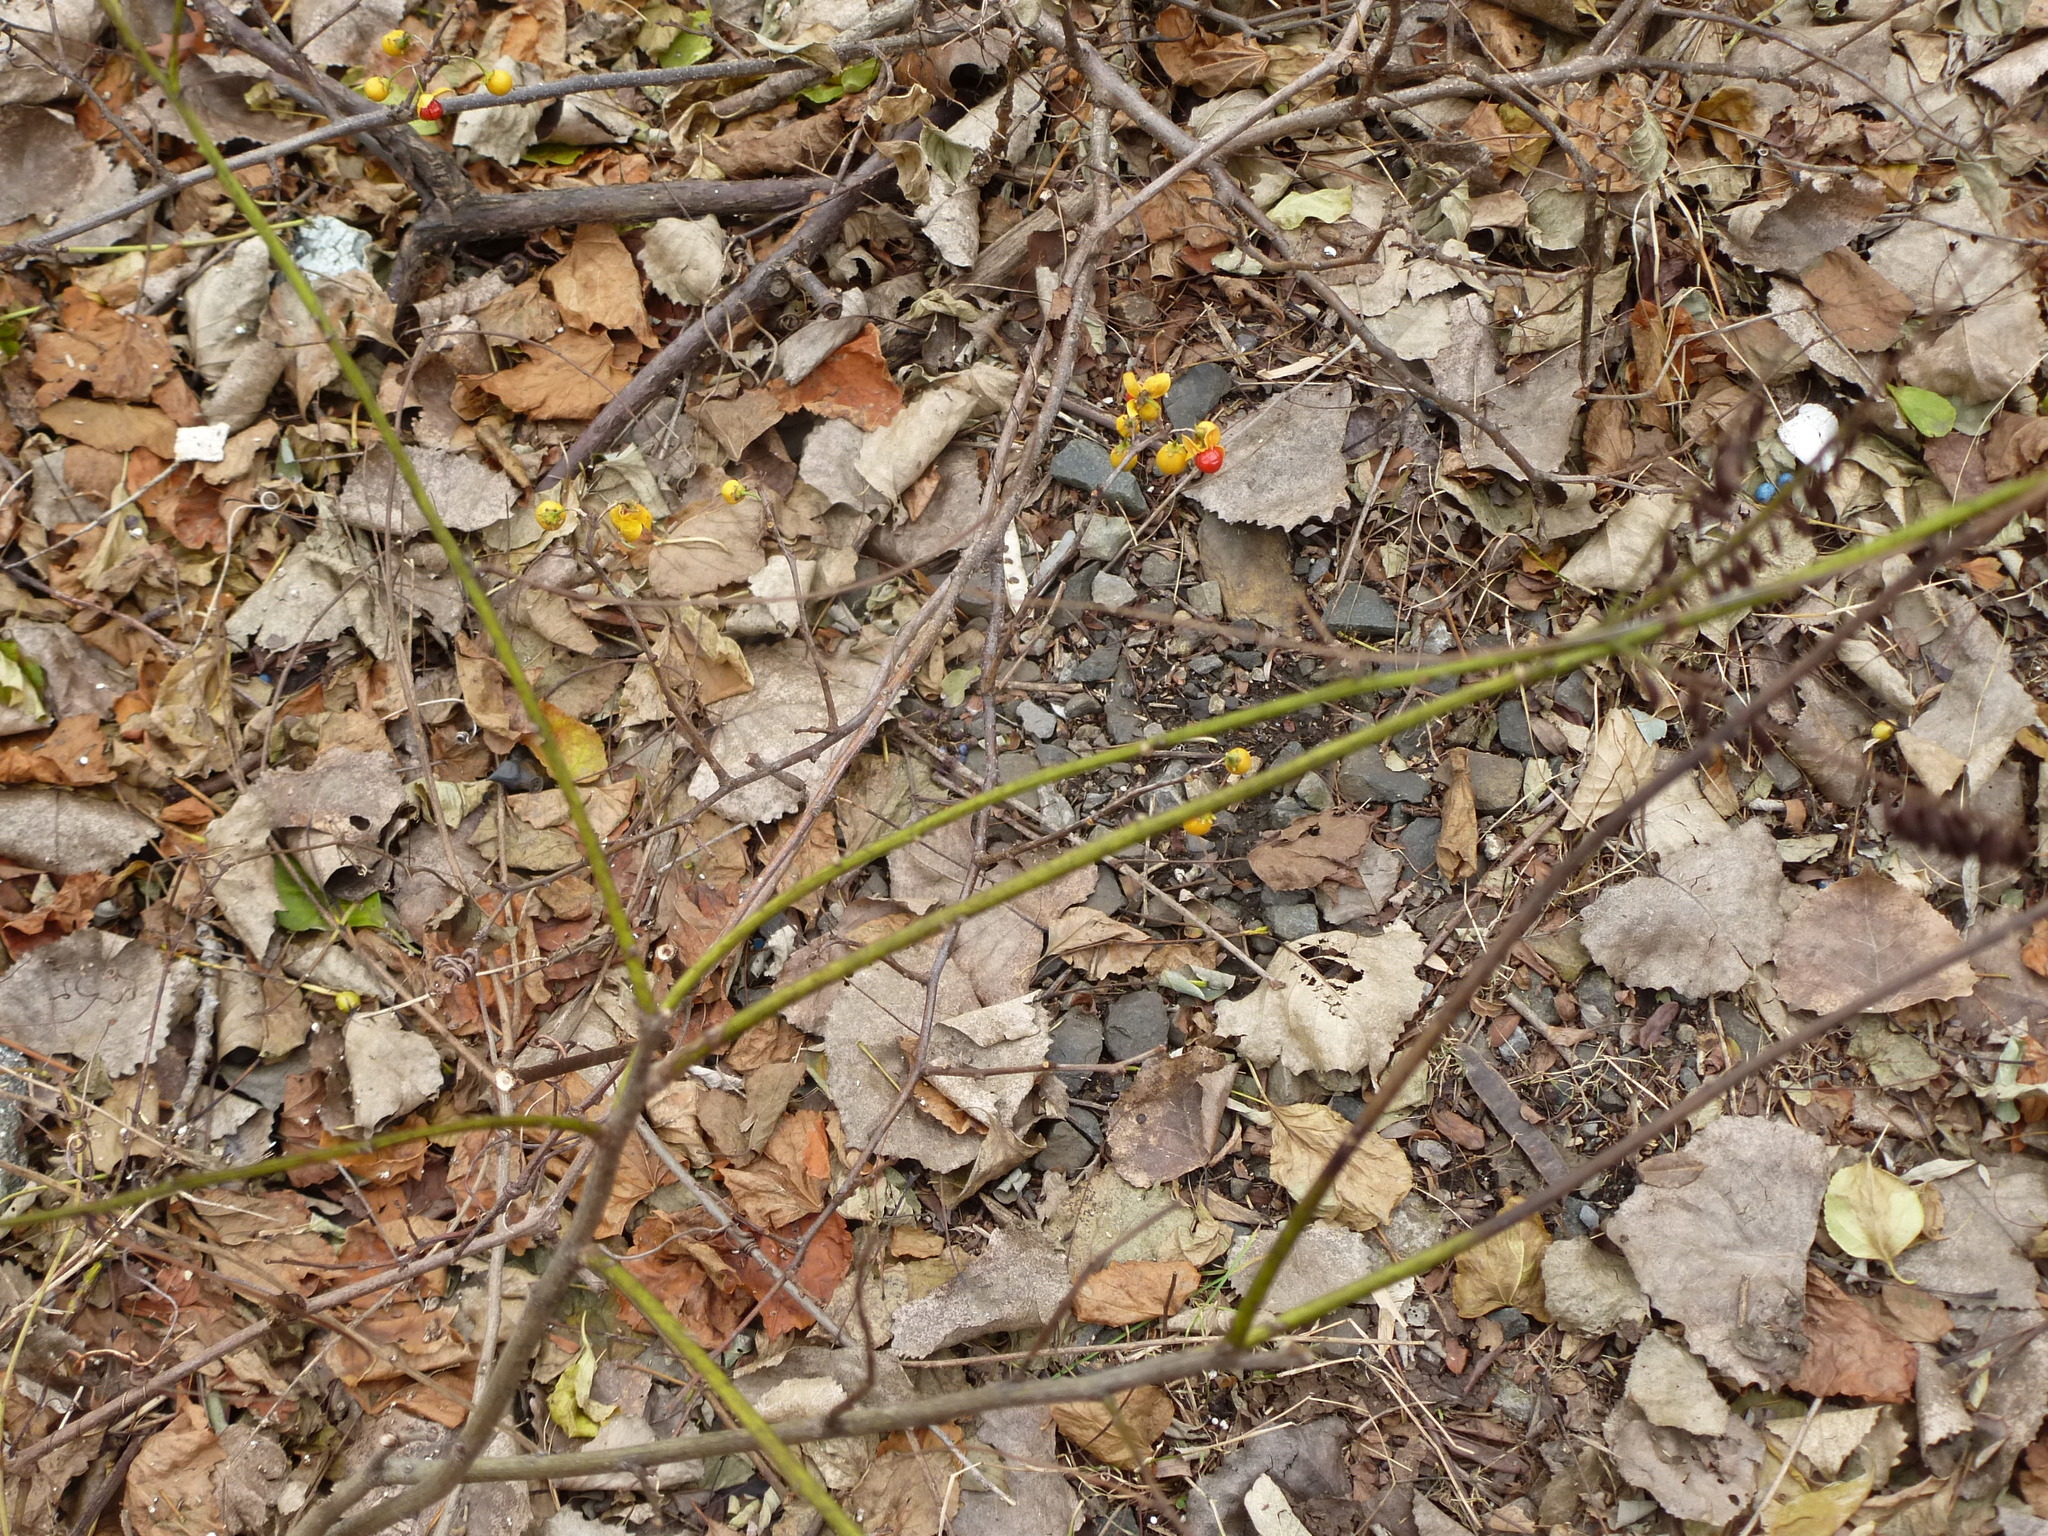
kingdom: Plantae
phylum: Tracheophyta
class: Magnoliopsida
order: Celastrales
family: Celastraceae
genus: Celastrus
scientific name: Celastrus orbiculatus
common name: Oriental bittersweet
